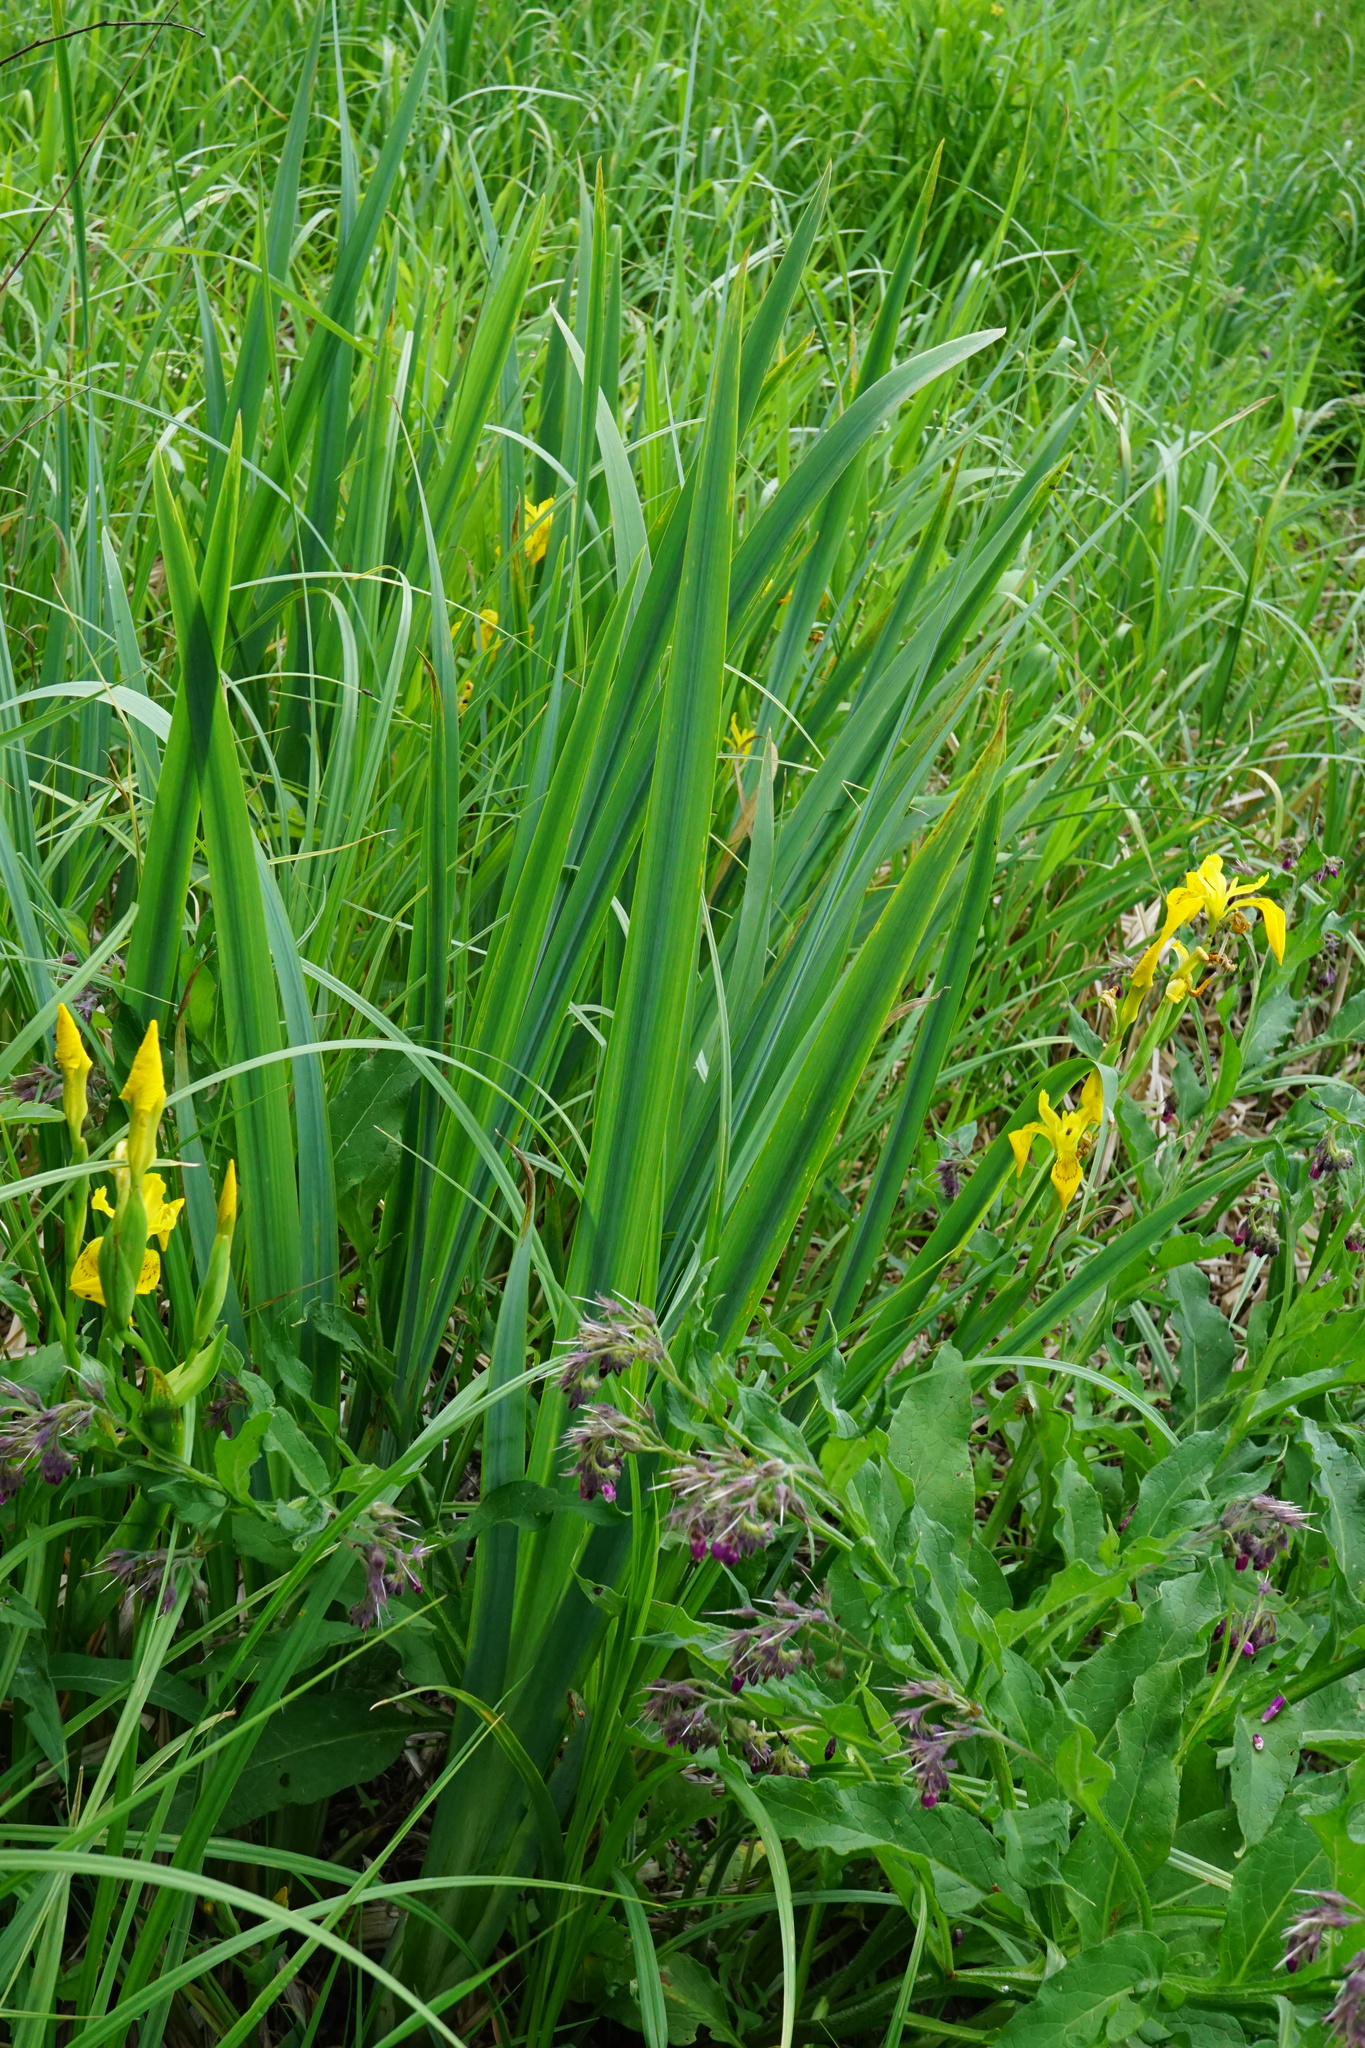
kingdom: Plantae
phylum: Tracheophyta
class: Liliopsida
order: Asparagales
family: Iridaceae
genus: Iris
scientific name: Iris pseudacorus
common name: Yellow flag
